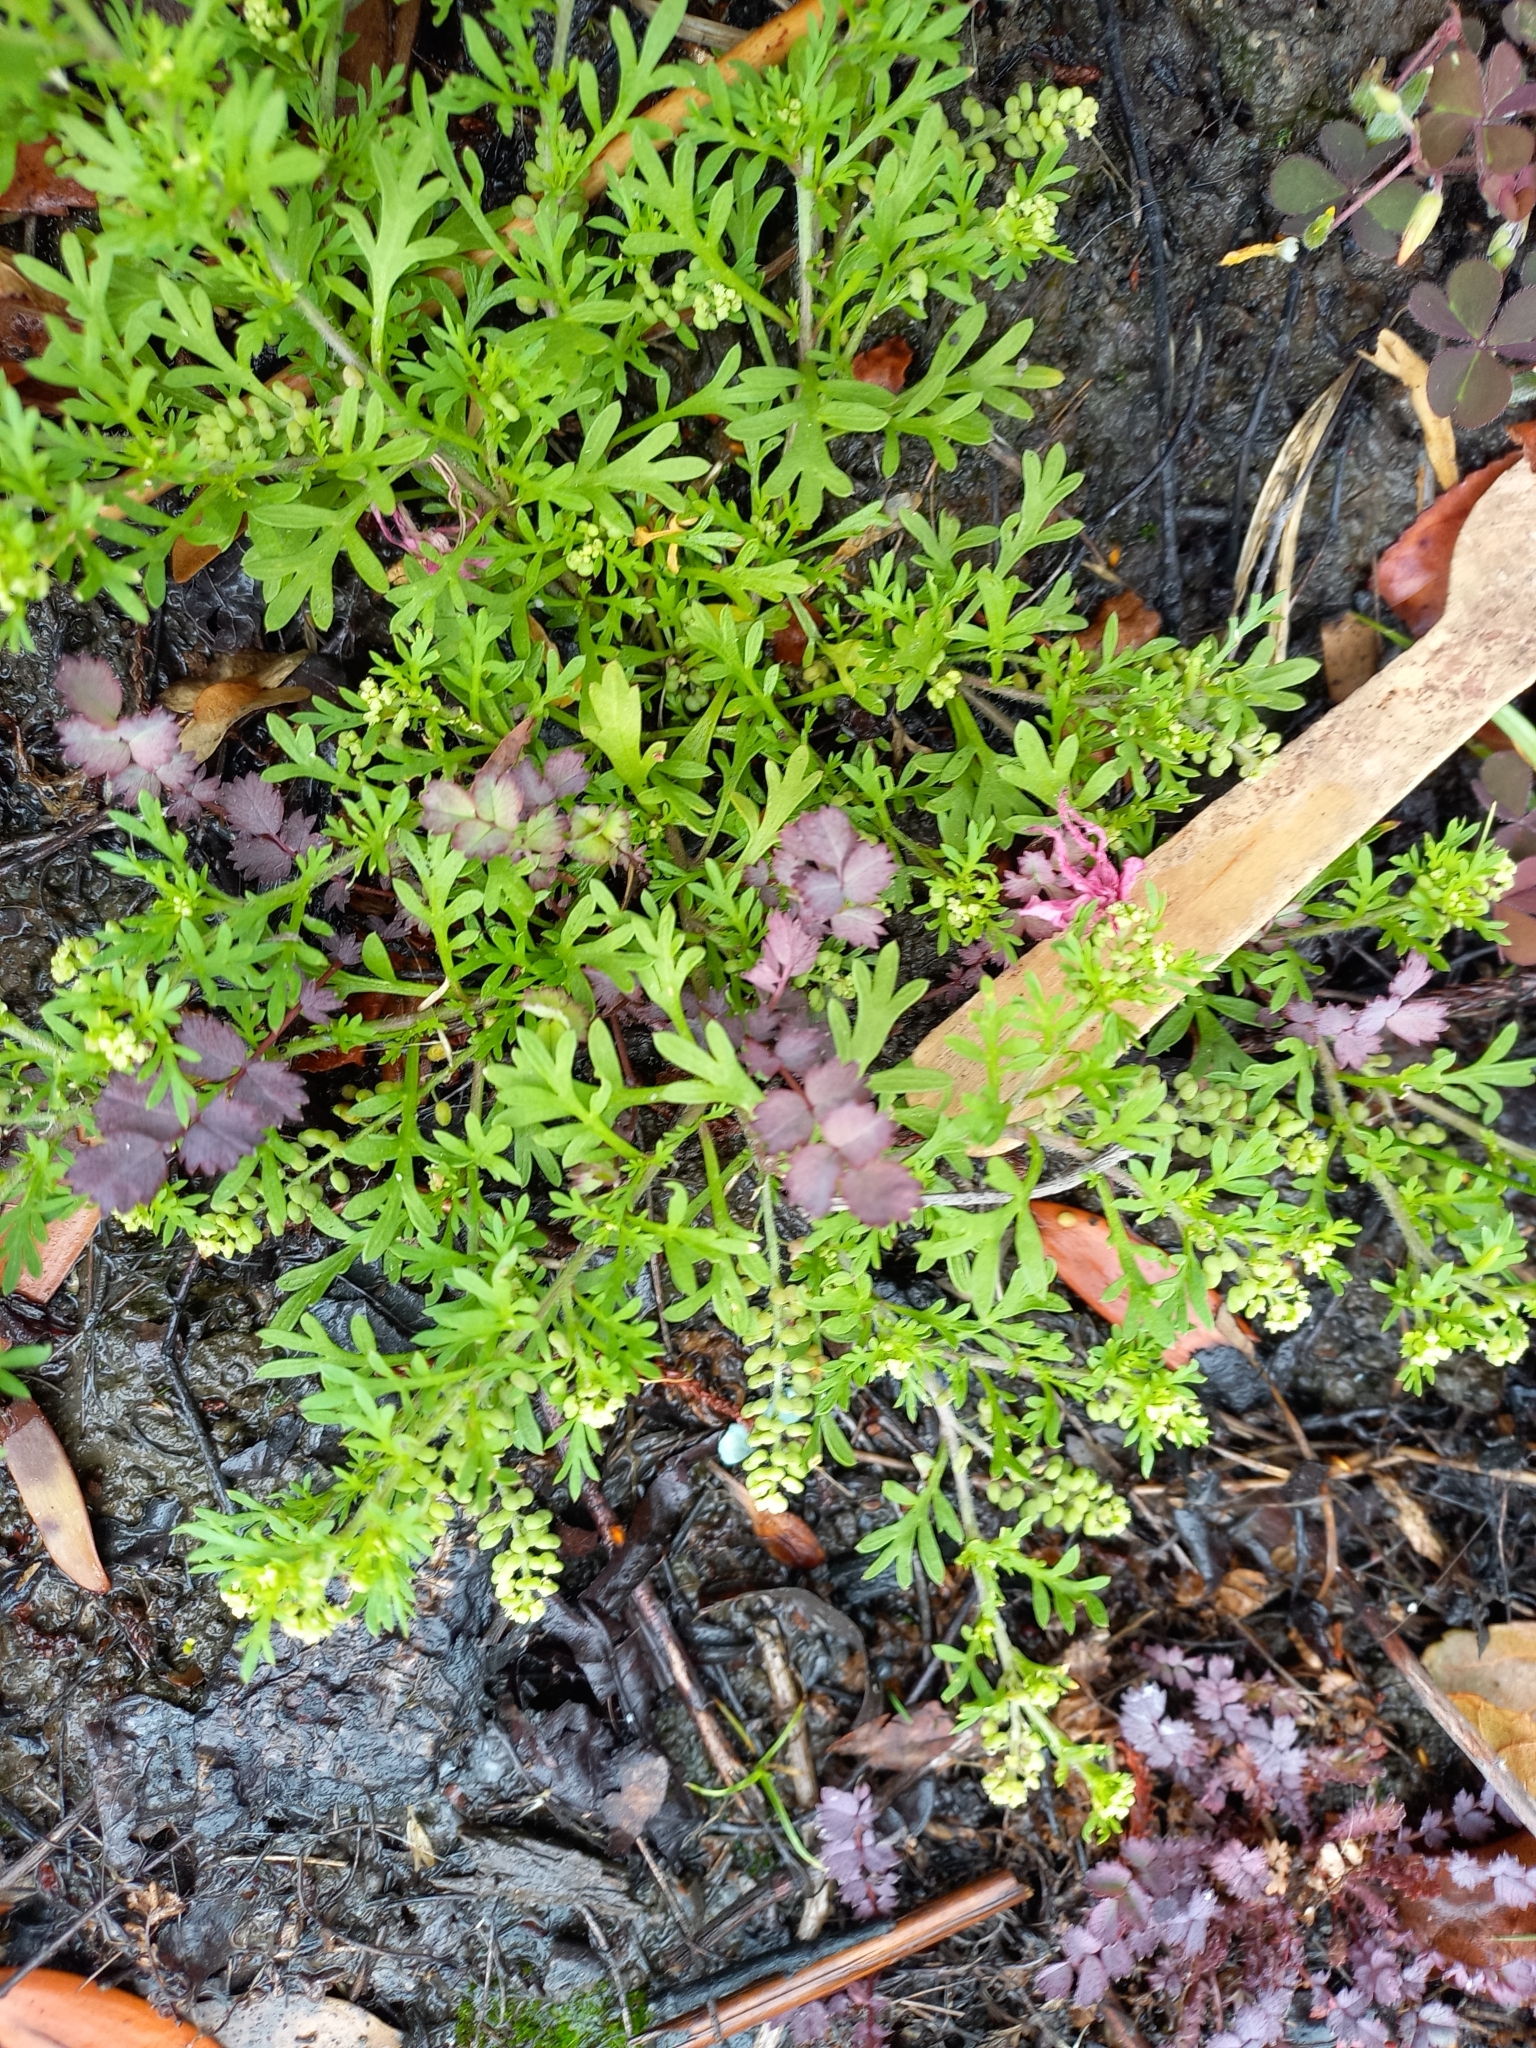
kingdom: Plantae
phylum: Tracheophyta
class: Magnoliopsida
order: Brassicales
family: Brassicaceae
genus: Lepidium
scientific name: Lepidium didymum
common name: Lesser swinecress
